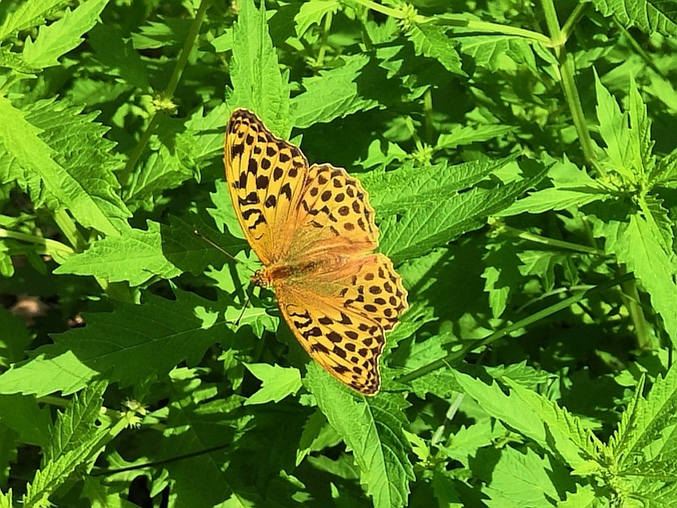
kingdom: Animalia
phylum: Arthropoda
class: Insecta
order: Lepidoptera
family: Nymphalidae
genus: Argynnis
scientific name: Argynnis paphia
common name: Silver-washed fritillary
